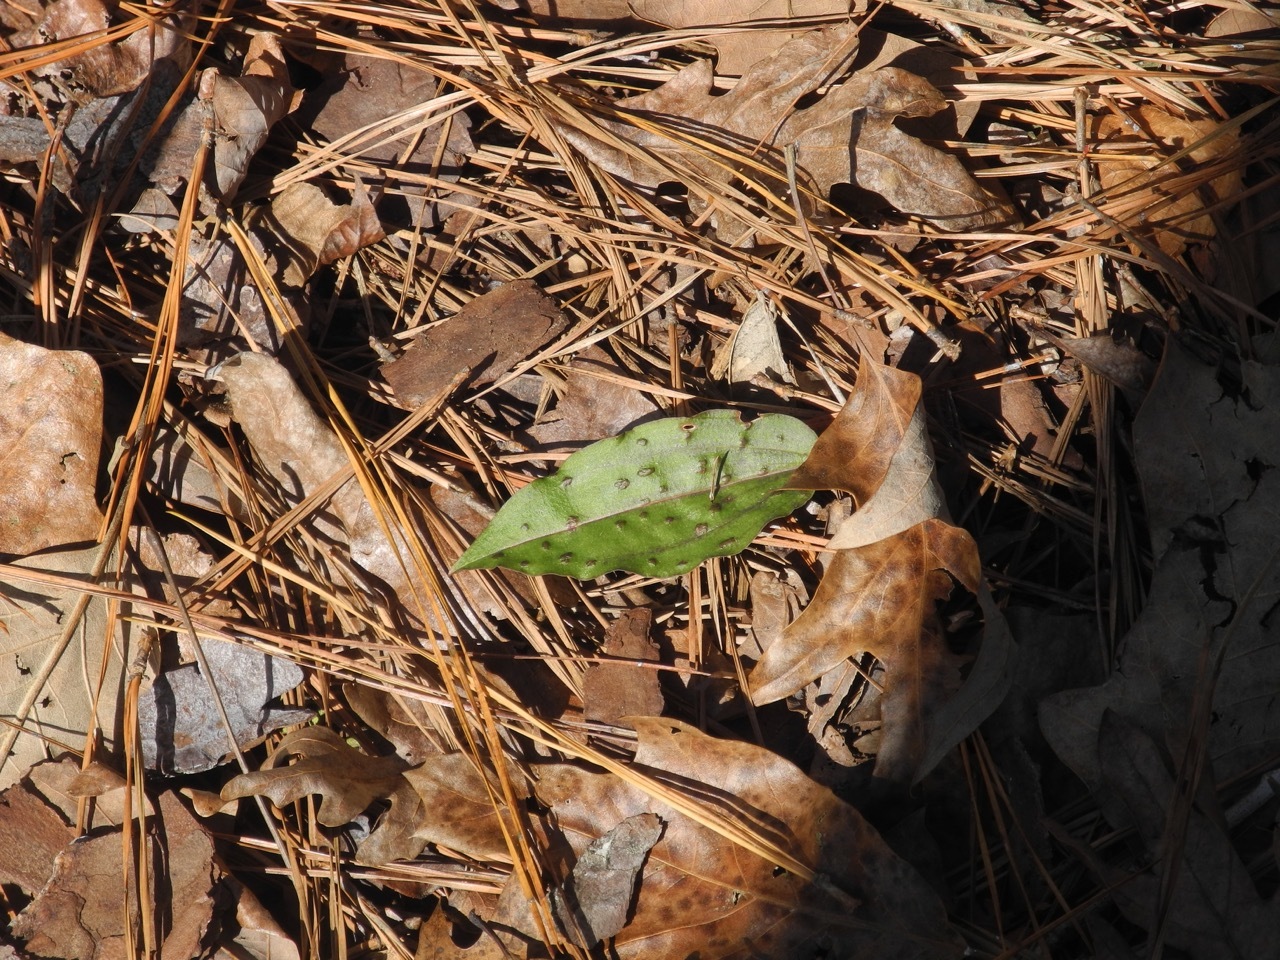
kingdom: Plantae
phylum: Tracheophyta
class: Liliopsida
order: Asparagales
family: Orchidaceae
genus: Tipularia
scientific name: Tipularia discolor
